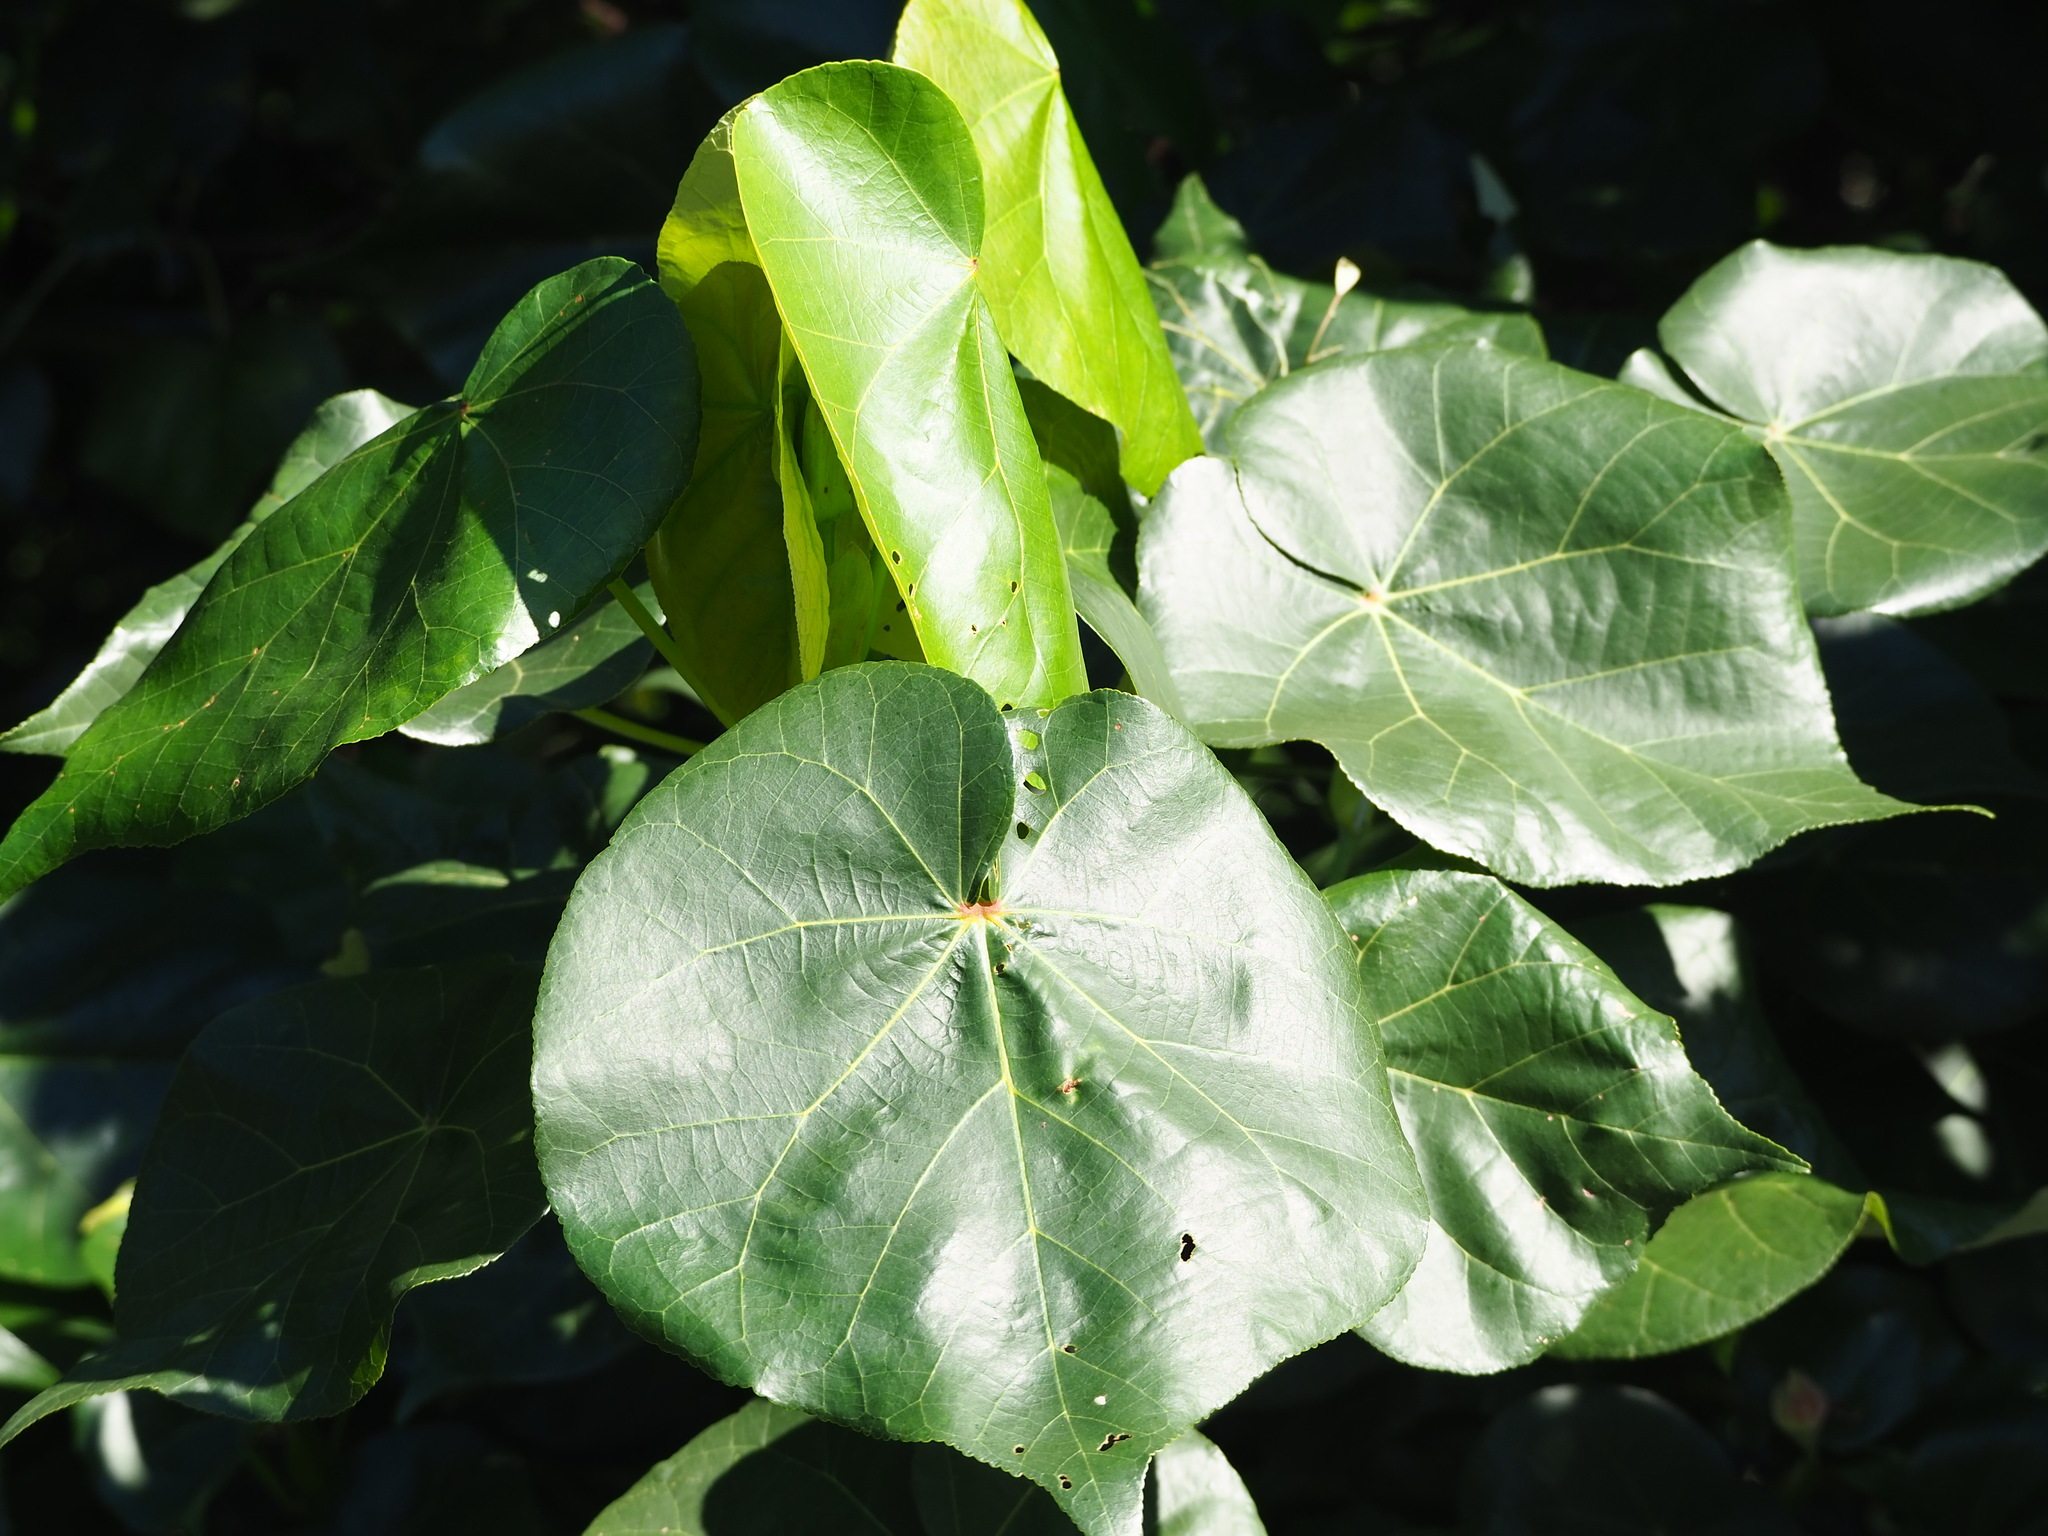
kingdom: Plantae
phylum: Tracheophyta
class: Magnoliopsida
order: Malvales
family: Malvaceae
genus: Talipariti
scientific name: Talipariti tiliaceum
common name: Sea hibiscus
